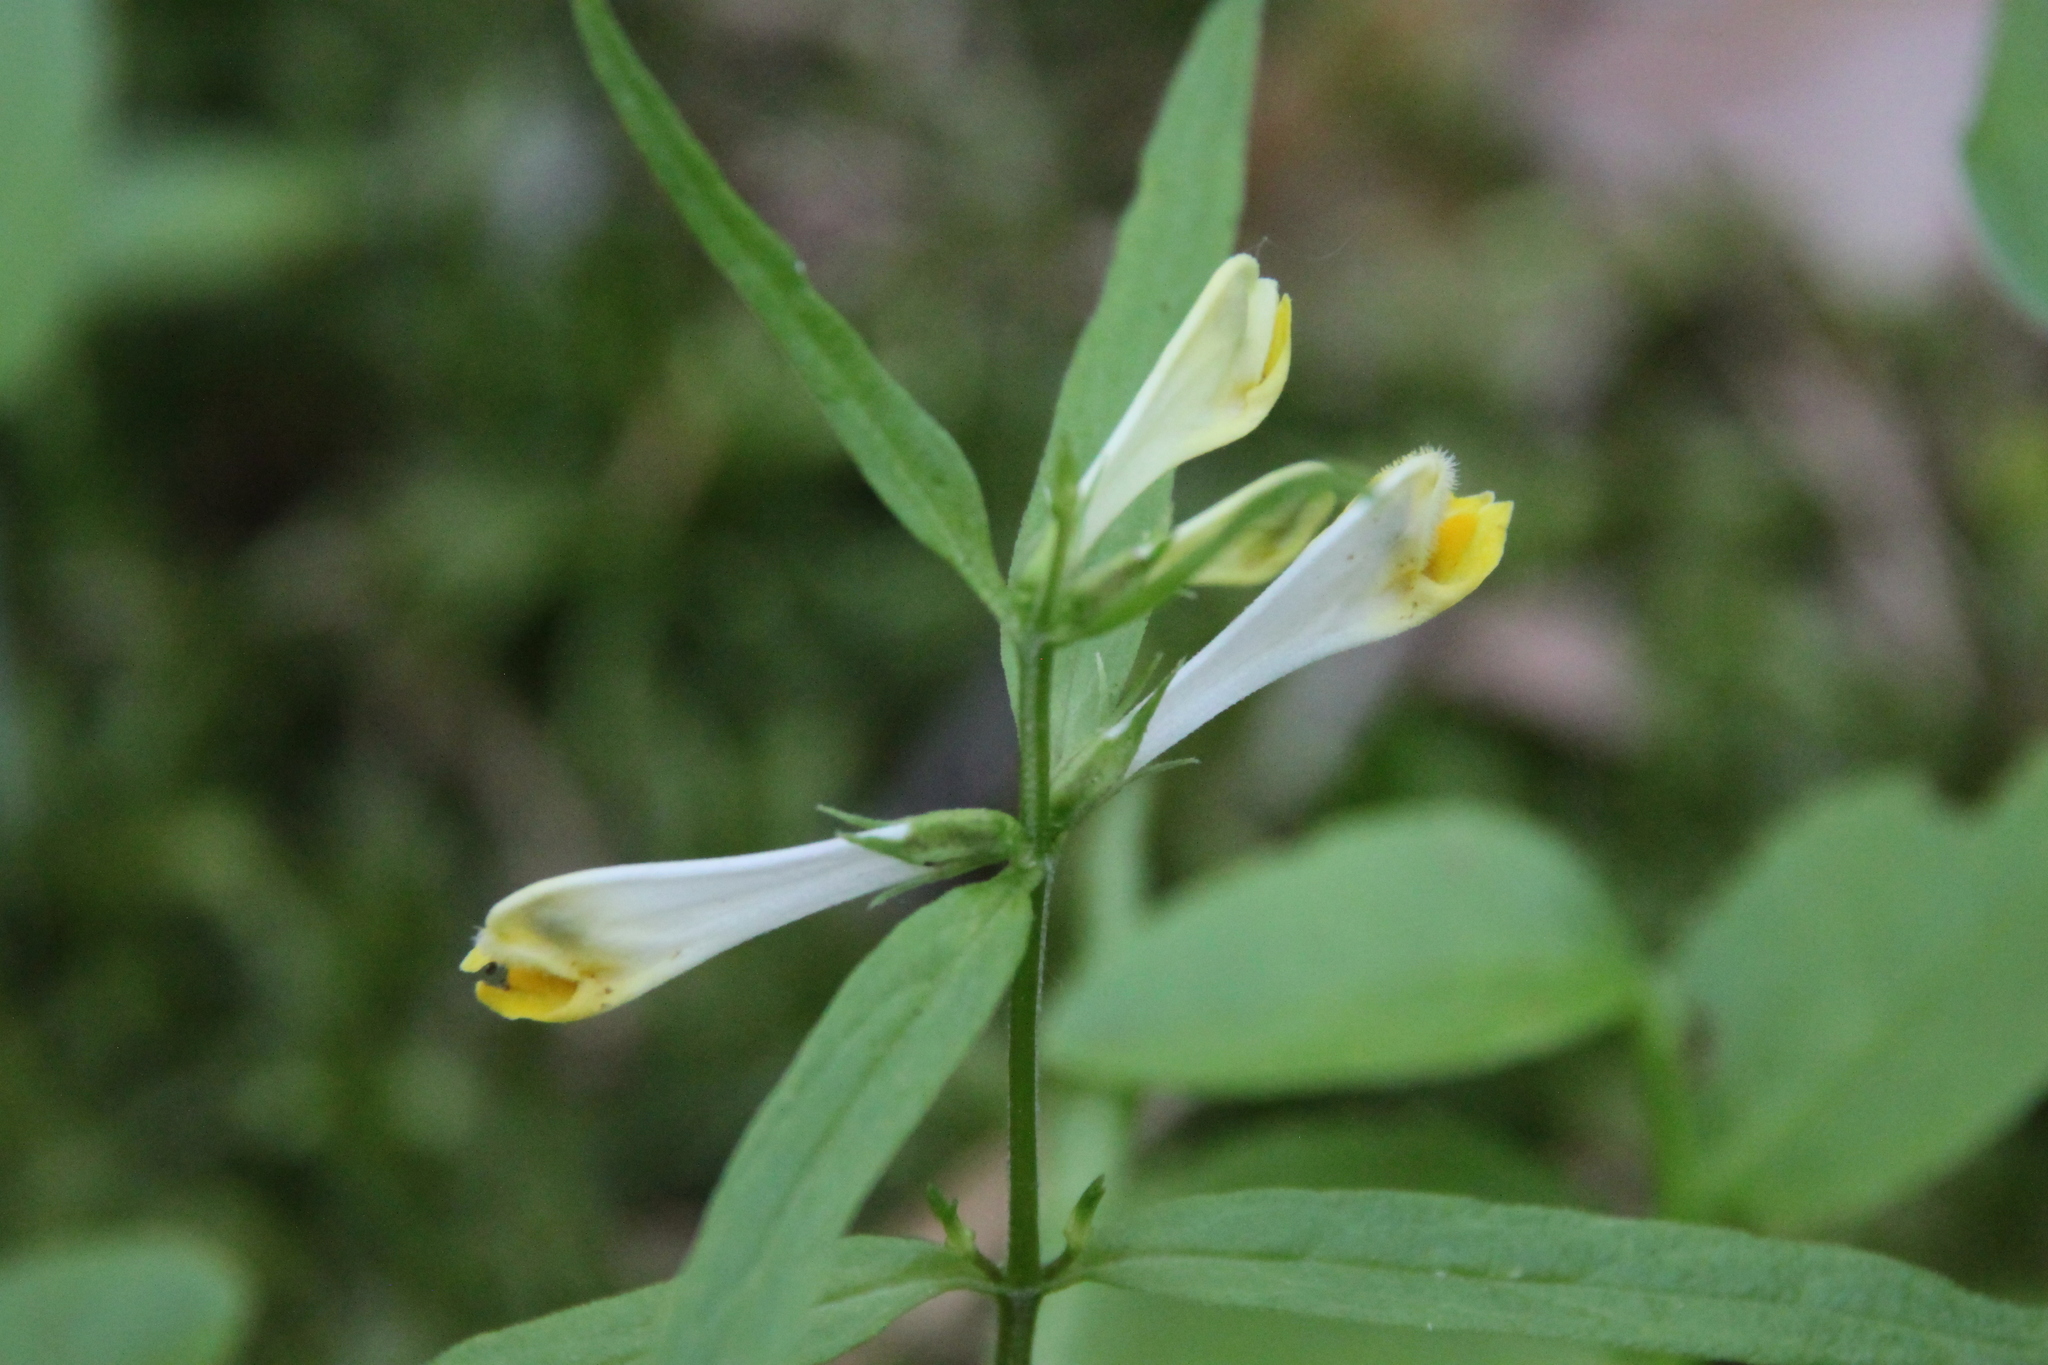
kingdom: Plantae
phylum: Tracheophyta
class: Magnoliopsida
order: Lamiales
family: Orobanchaceae
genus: Melampyrum
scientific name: Melampyrum pratense
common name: Common cow-wheat
